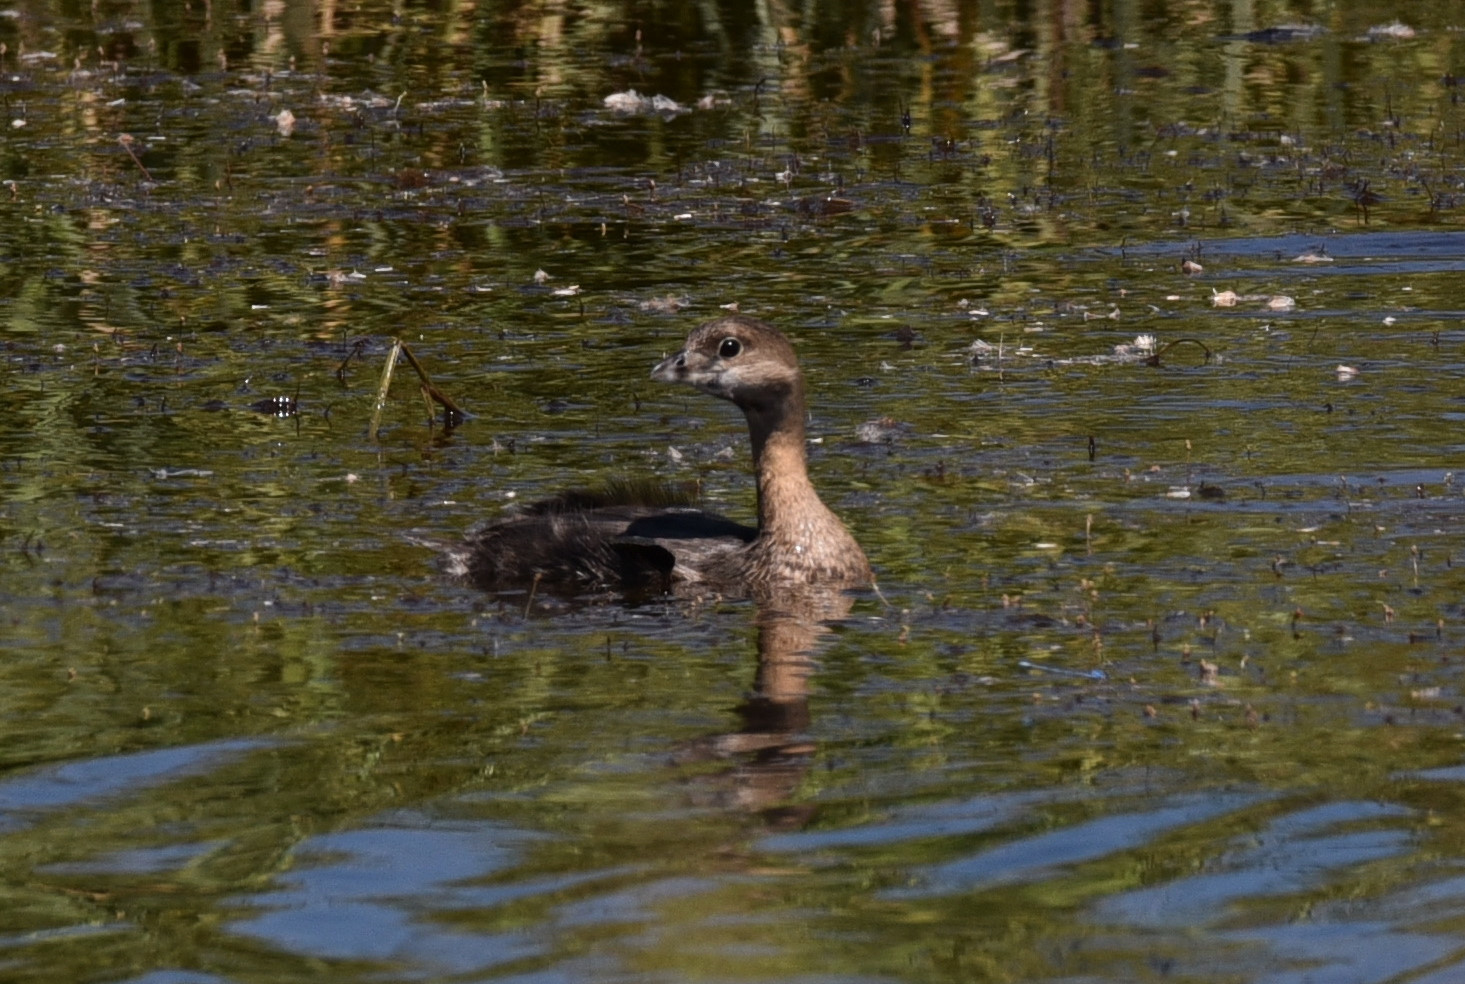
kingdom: Animalia
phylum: Chordata
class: Aves
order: Podicipediformes
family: Podicipedidae
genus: Podilymbus
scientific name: Podilymbus podiceps
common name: Pied-billed grebe
